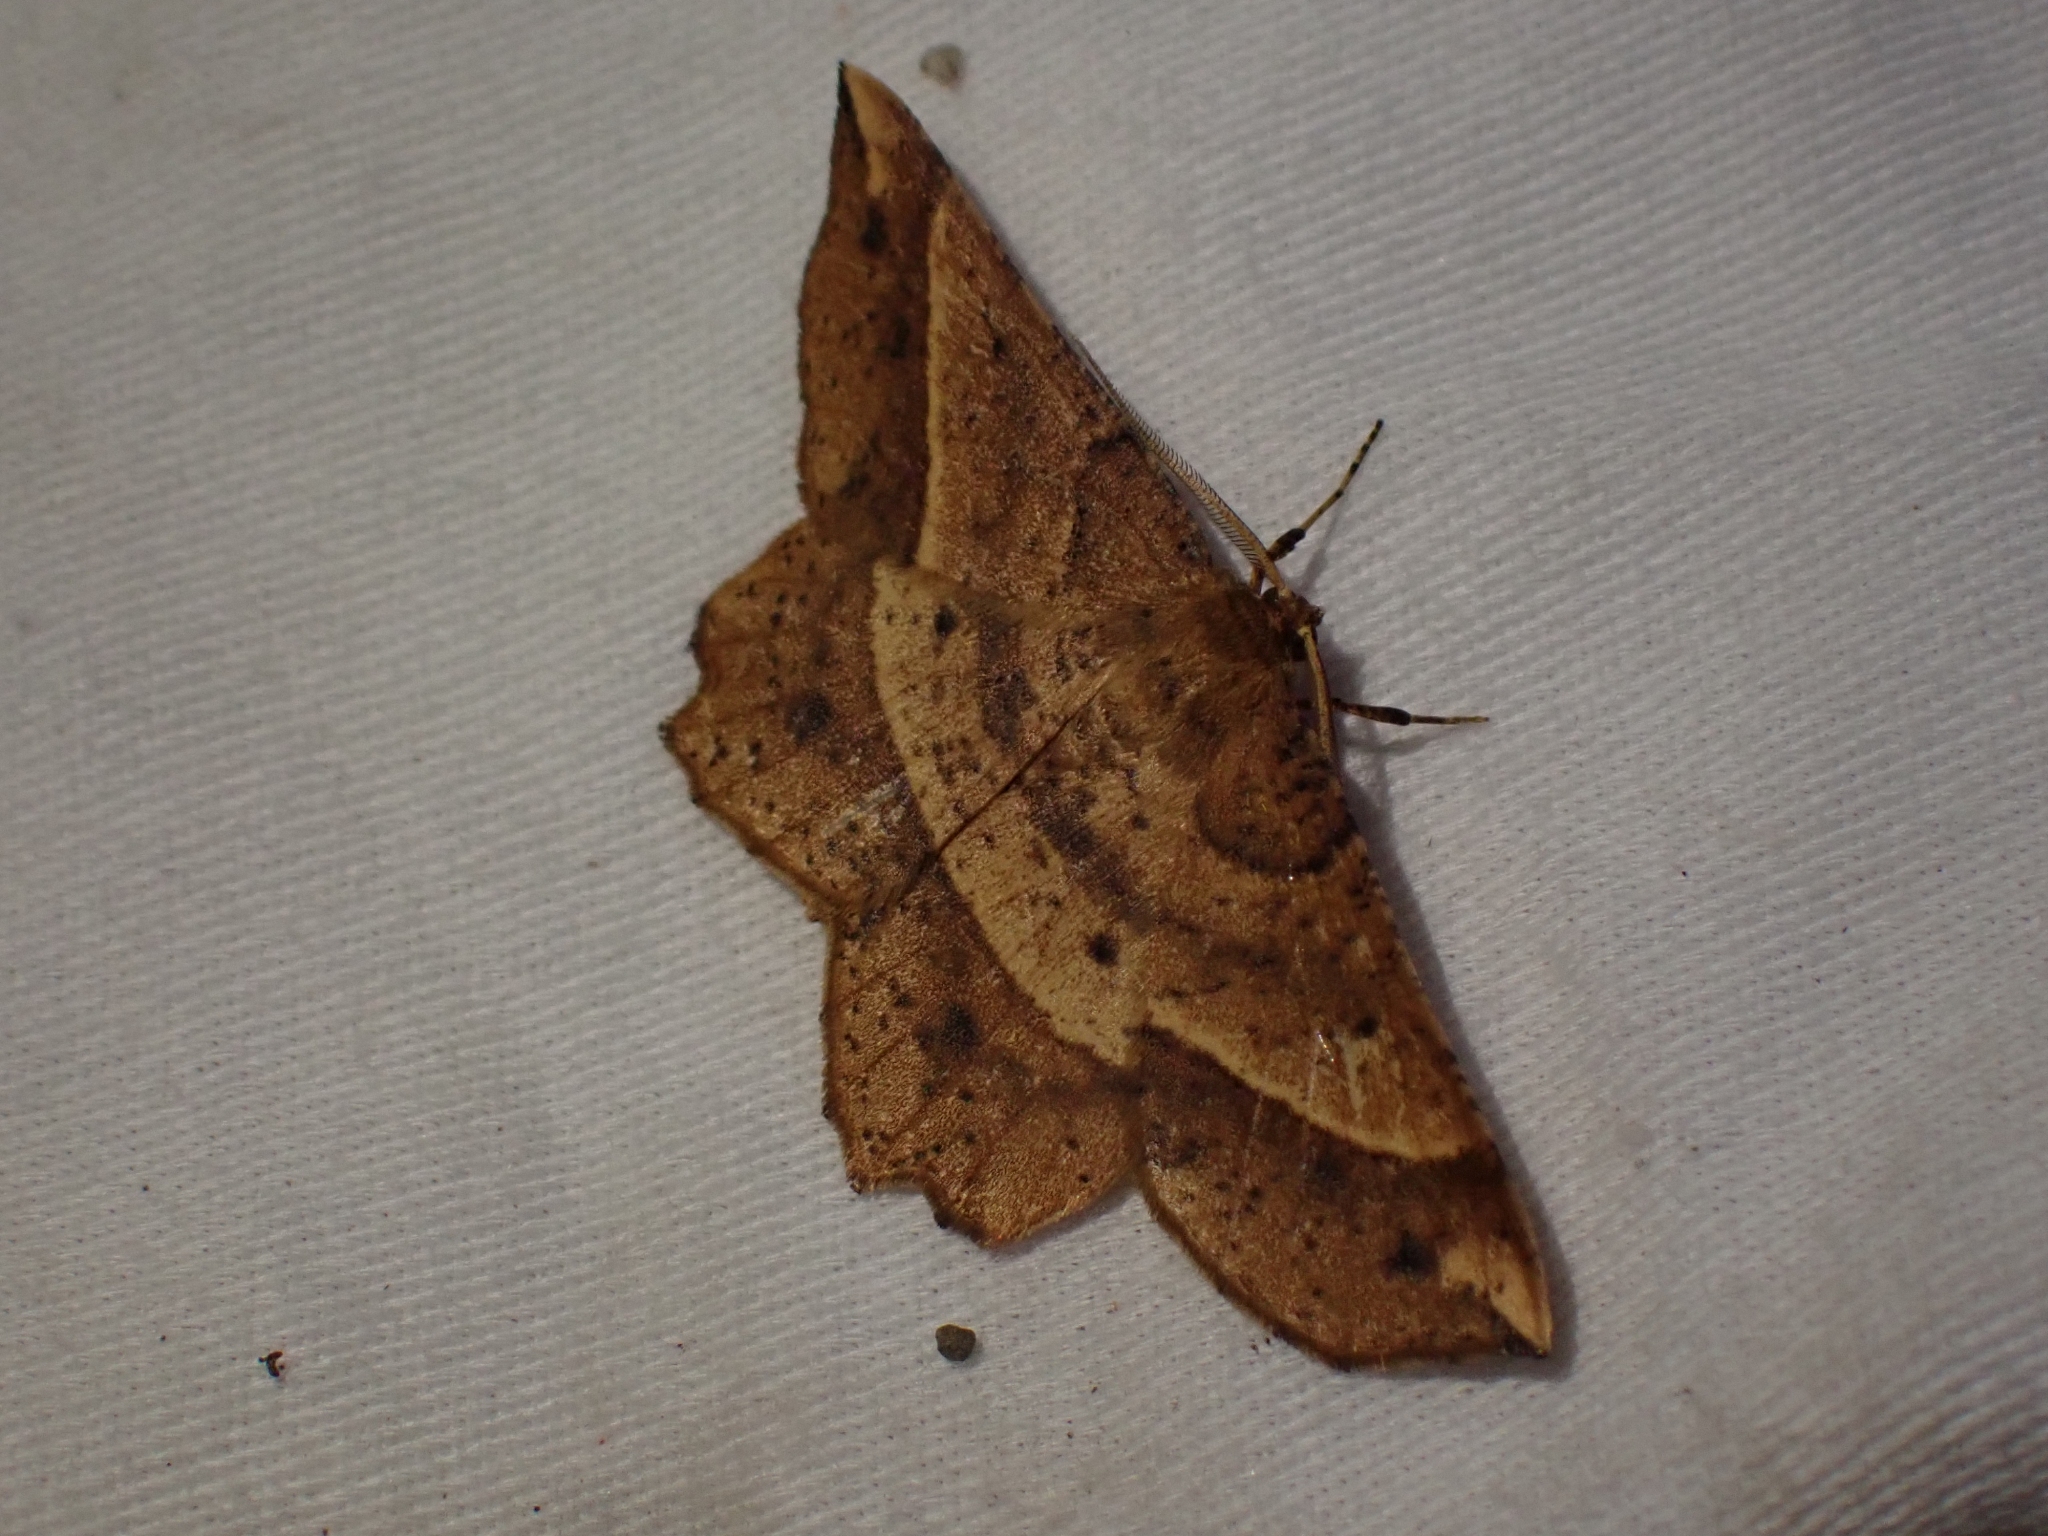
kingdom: Animalia
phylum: Arthropoda
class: Insecta
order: Lepidoptera
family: Geometridae
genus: Euchlaena
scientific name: Euchlaena tigrinaria
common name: Mottled euchlaena moth
